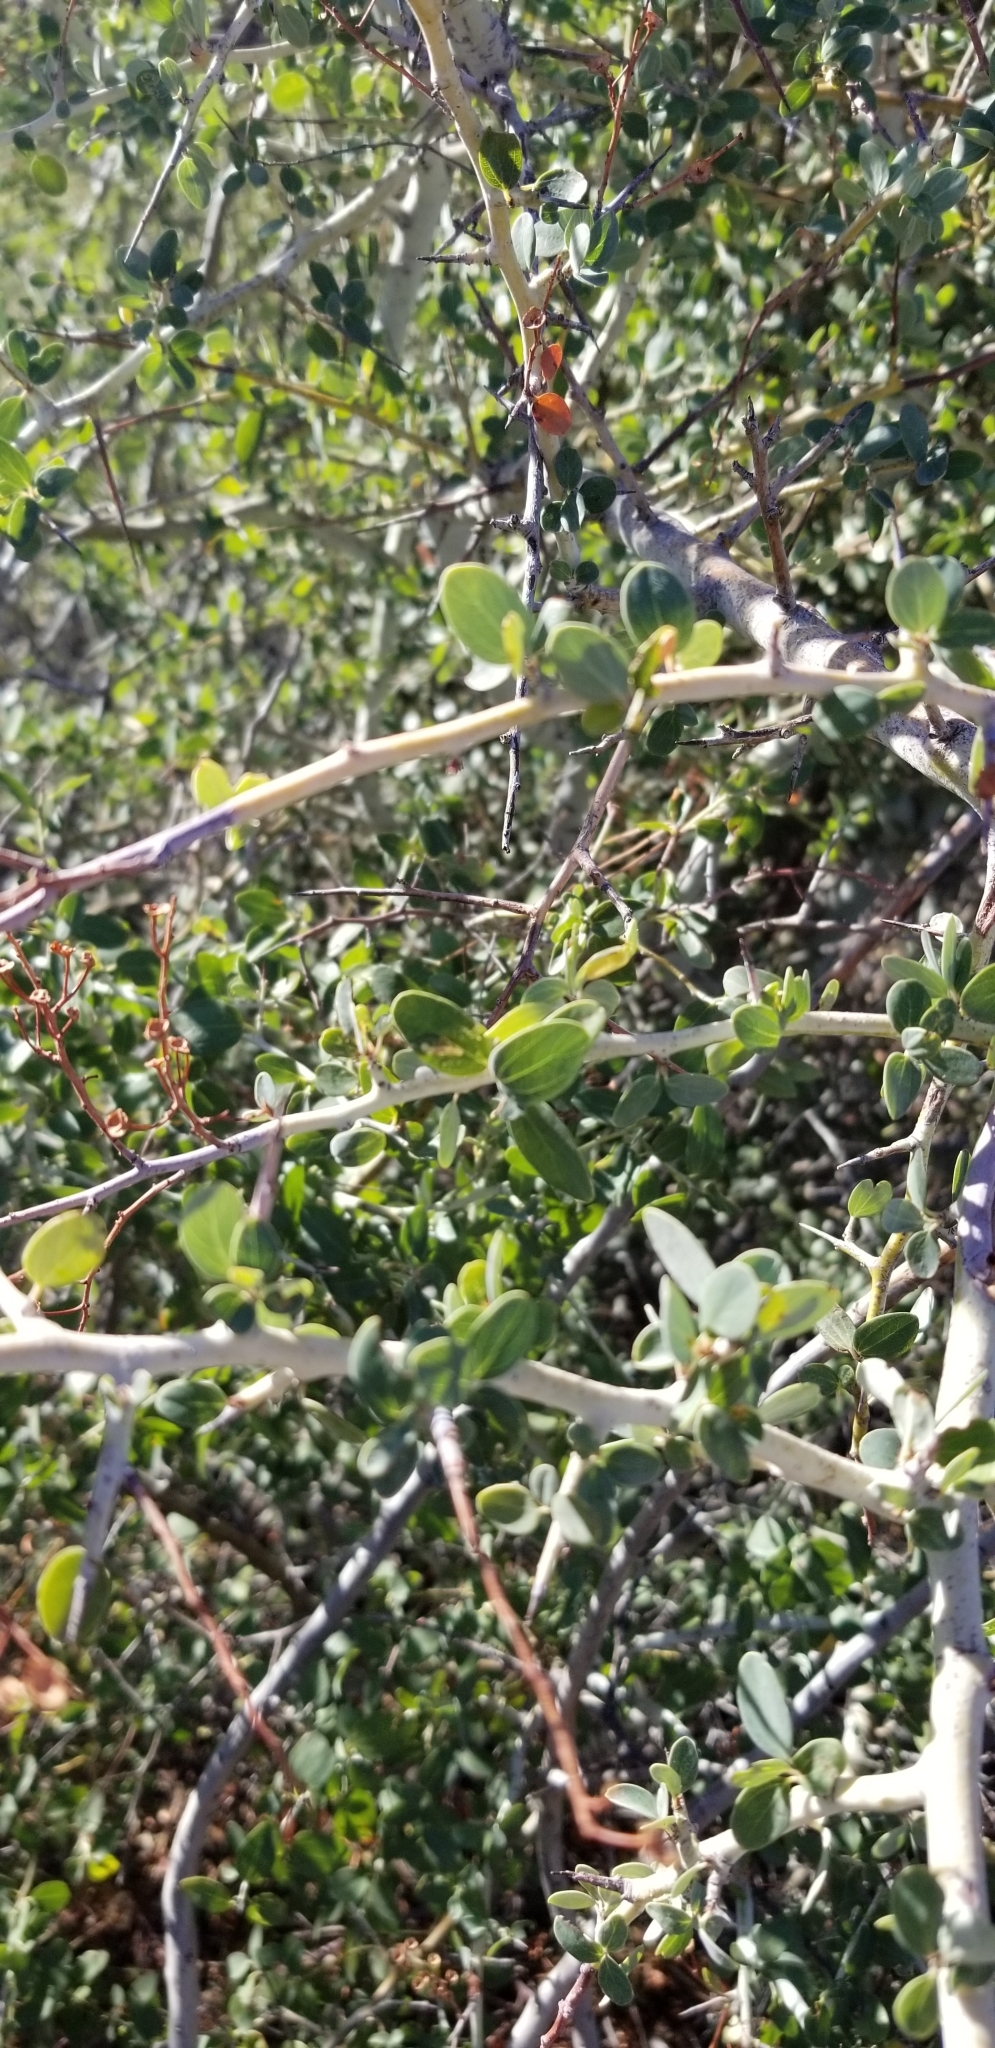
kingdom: Plantae
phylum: Tracheophyta
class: Magnoliopsida
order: Rosales
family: Rhamnaceae
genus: Ceanothus
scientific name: Ceanothus leucodermis
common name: Chaparral whitethorn
